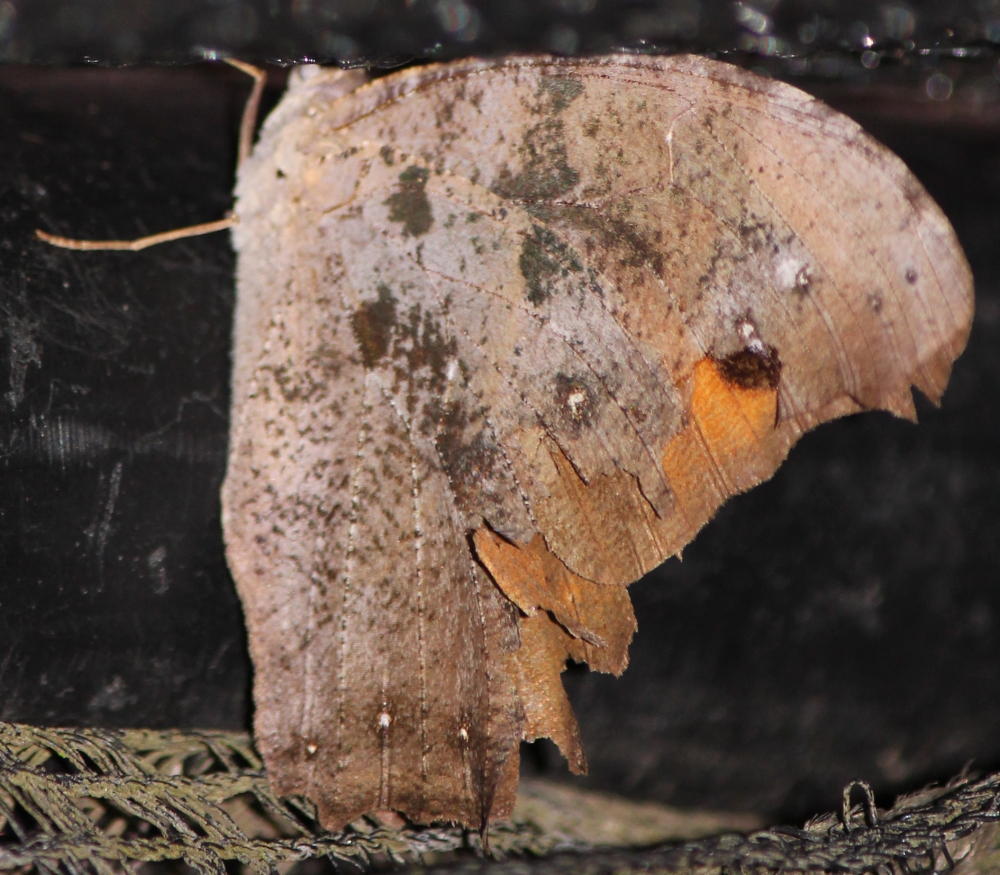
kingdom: Animalia
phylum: Arthropoda
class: Insecta
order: Lepidoptera
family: Nymphalidae
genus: Melanitis
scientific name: Melanitis leda
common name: Twilight brown
